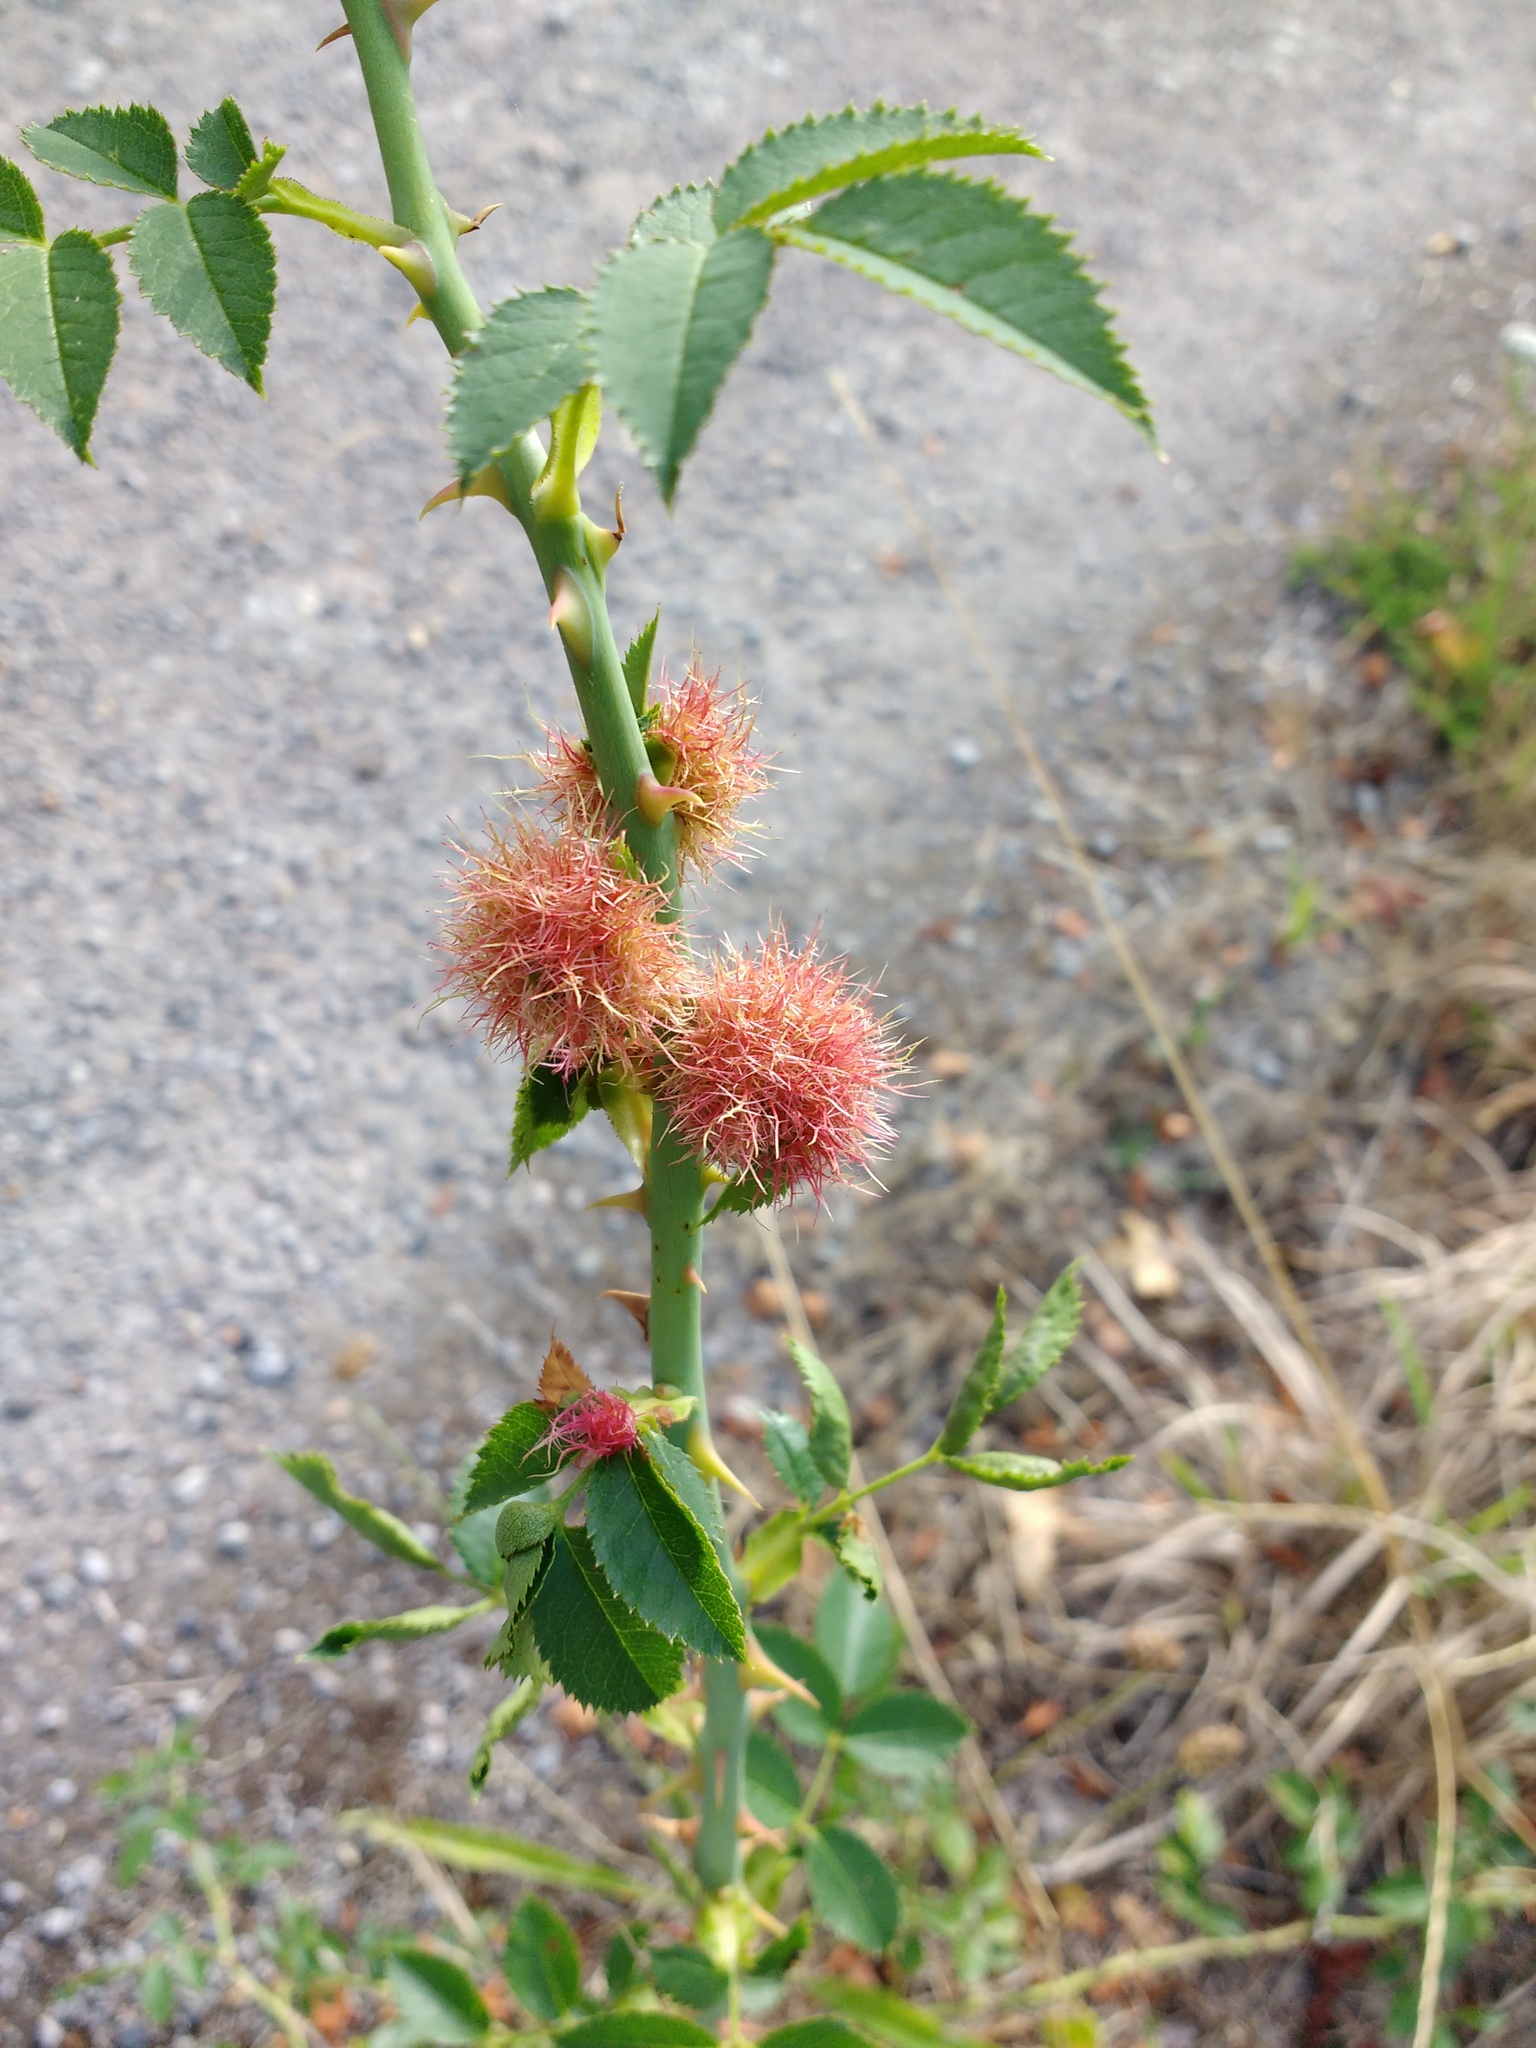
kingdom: Animalia
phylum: Arthropoda
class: Insecta
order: Hymenoptera
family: Cynipidae
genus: Diplolepis
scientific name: Diplolepis rosae
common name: Bedeguar gall
